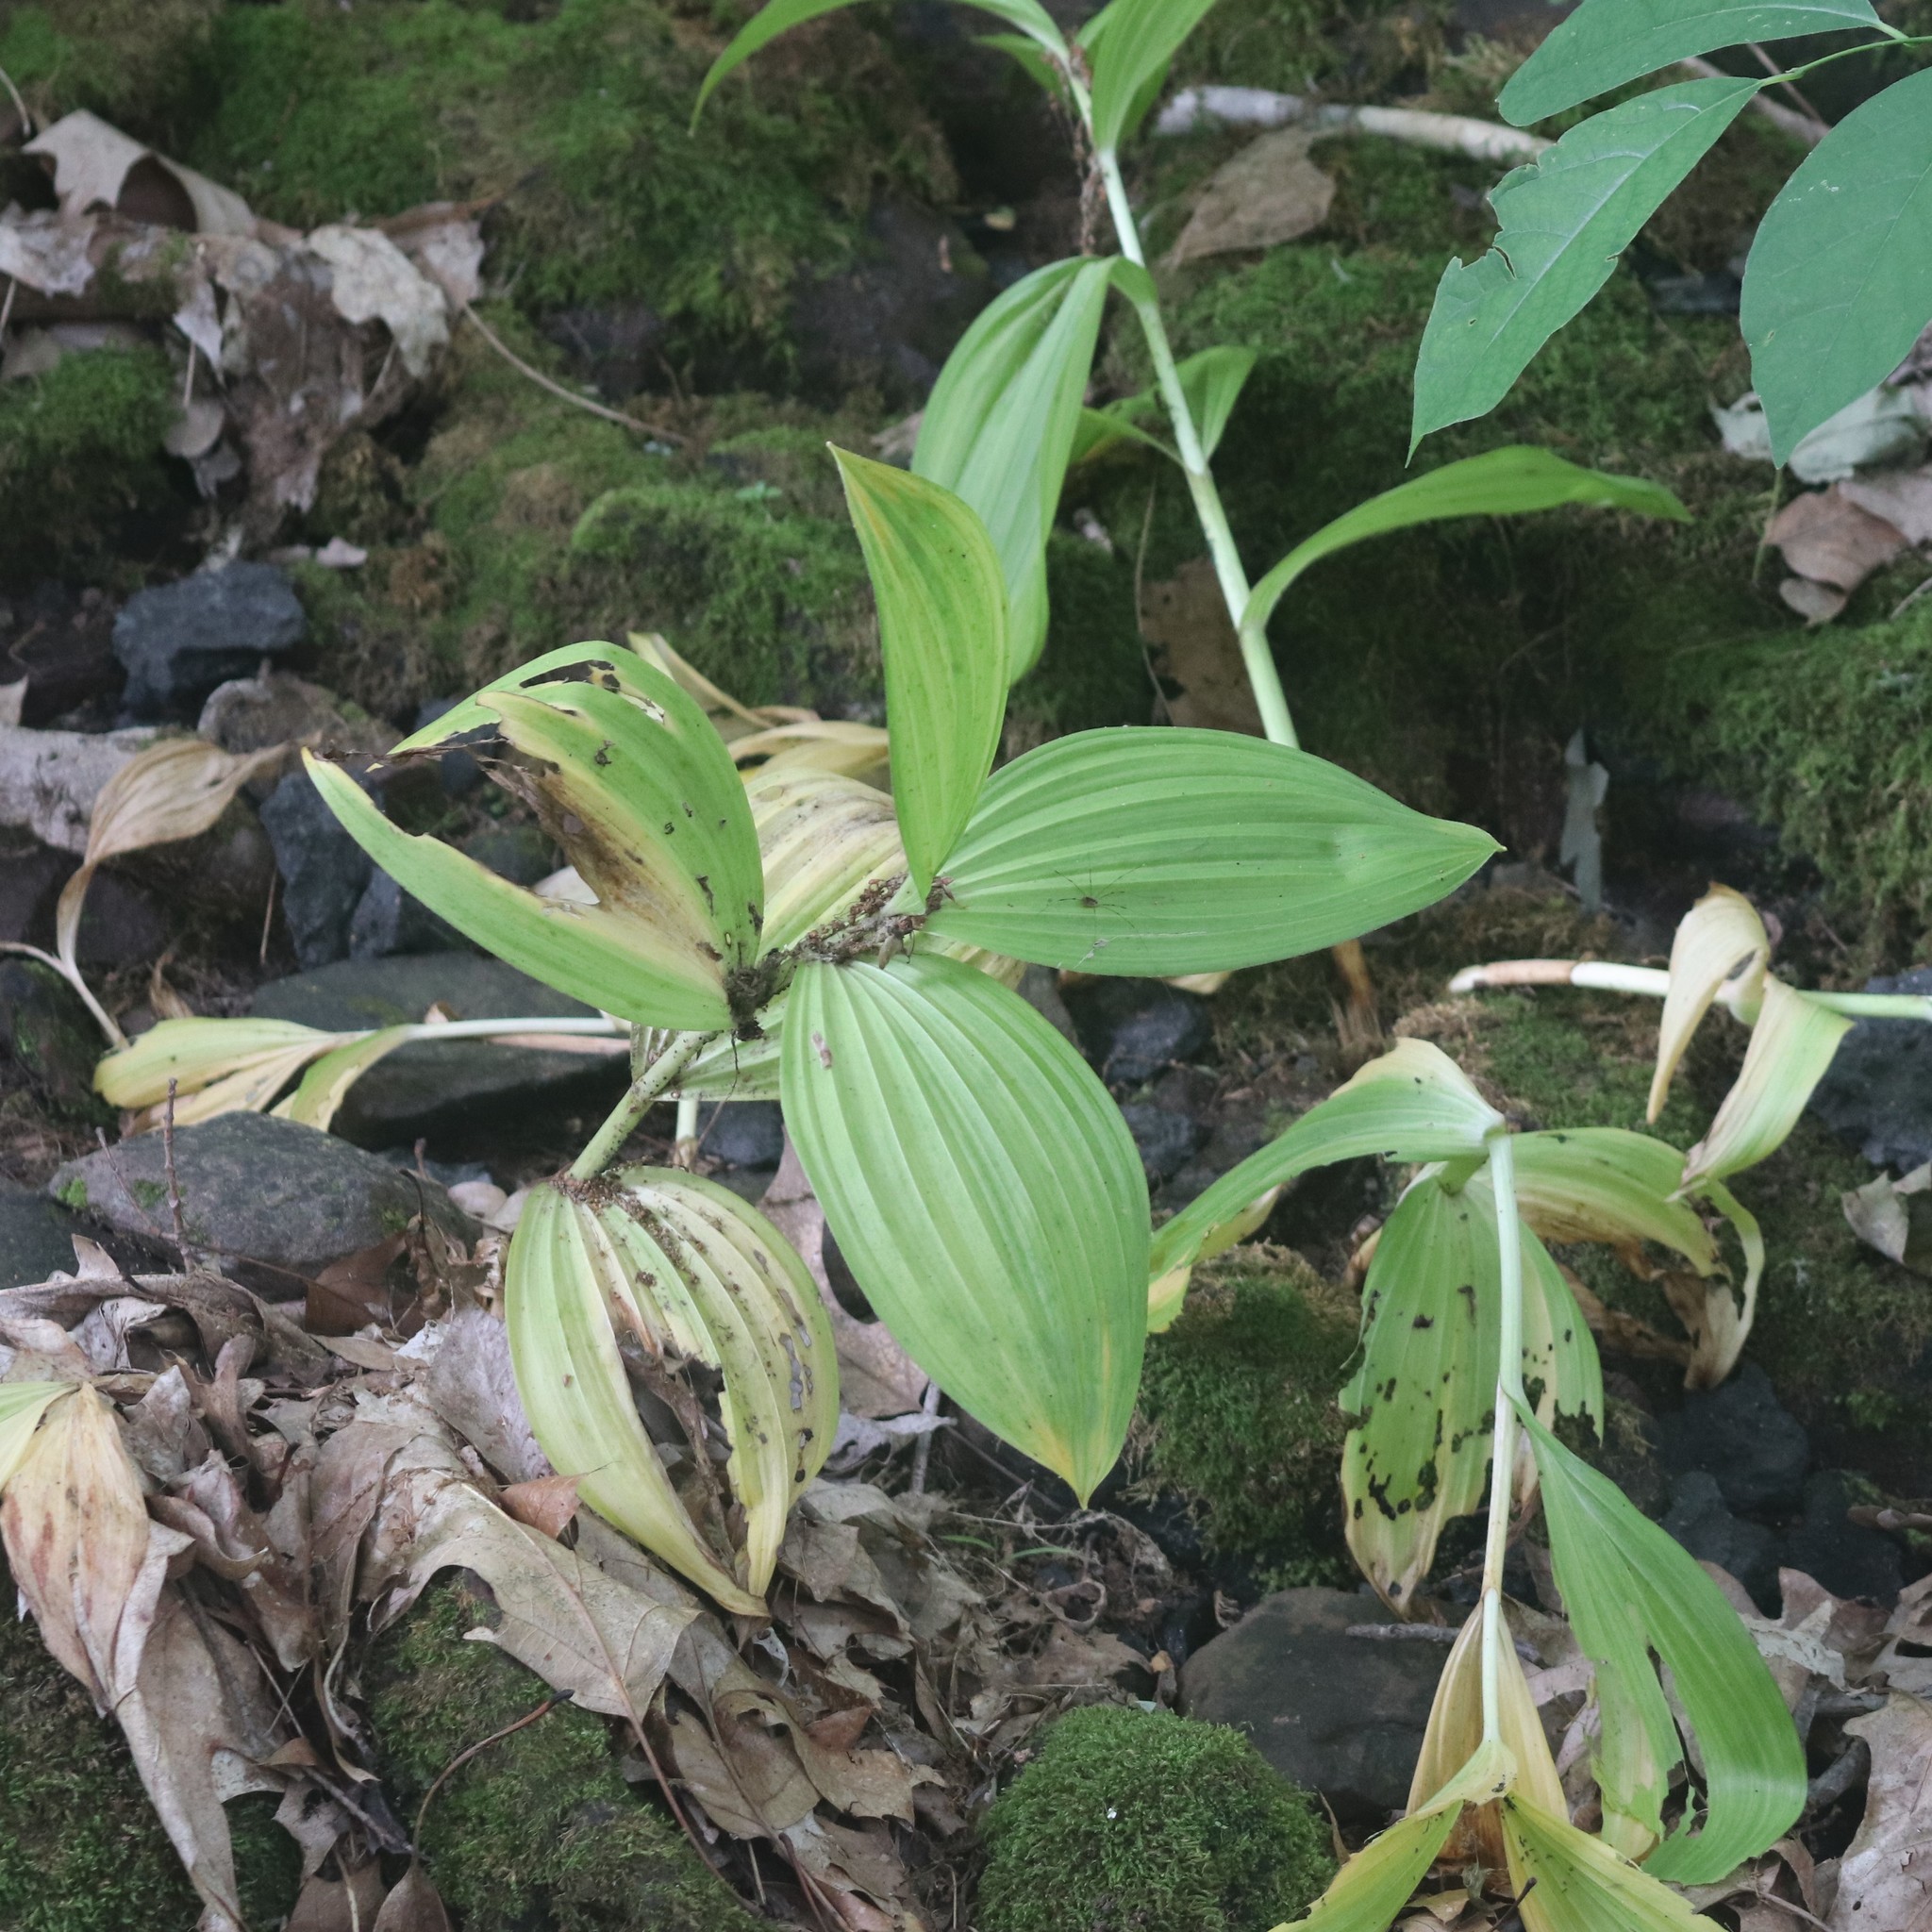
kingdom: Plantae
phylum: Tracheophyta
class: Liliopsida
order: Liliales
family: Melanthiaceae
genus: Veratrum
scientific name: Veratrum viride
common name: American false hellebore
